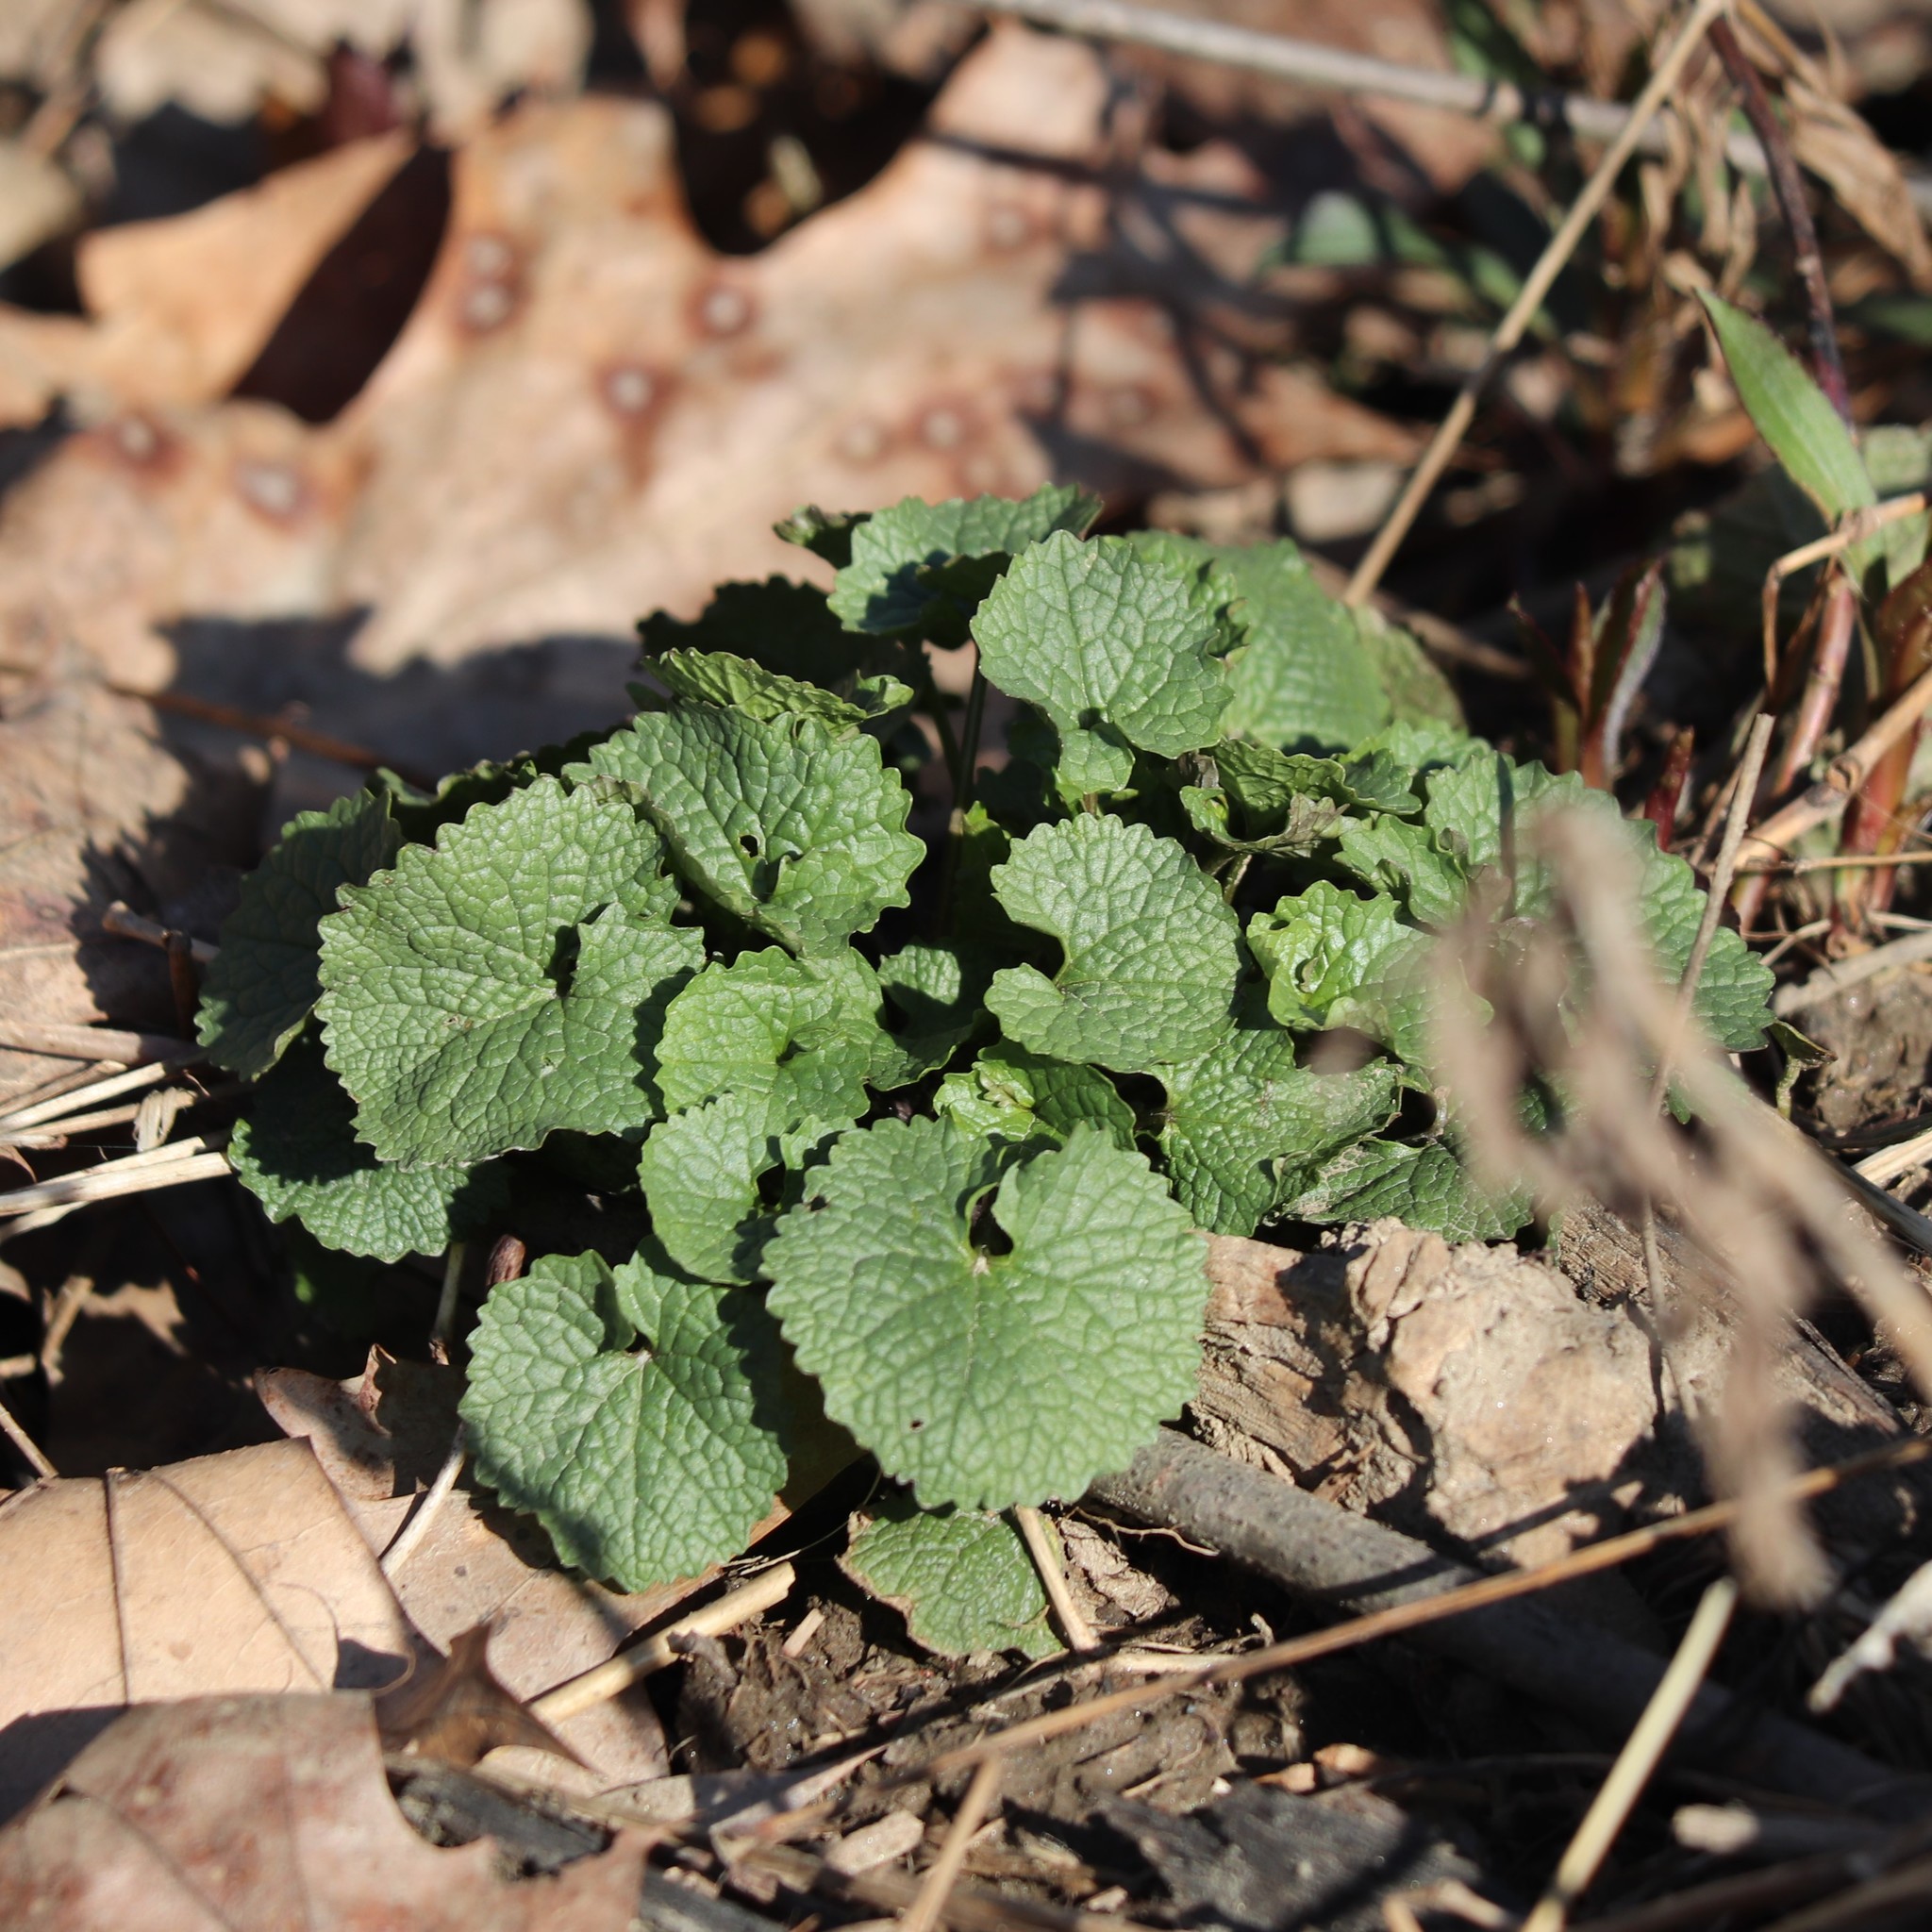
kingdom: Plantae
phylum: Tracheophyta
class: Magnoliopsida
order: Brassicales
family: Brassicaceae
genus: Alliaria
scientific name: Alliaria petiolata
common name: Garlic mustard
